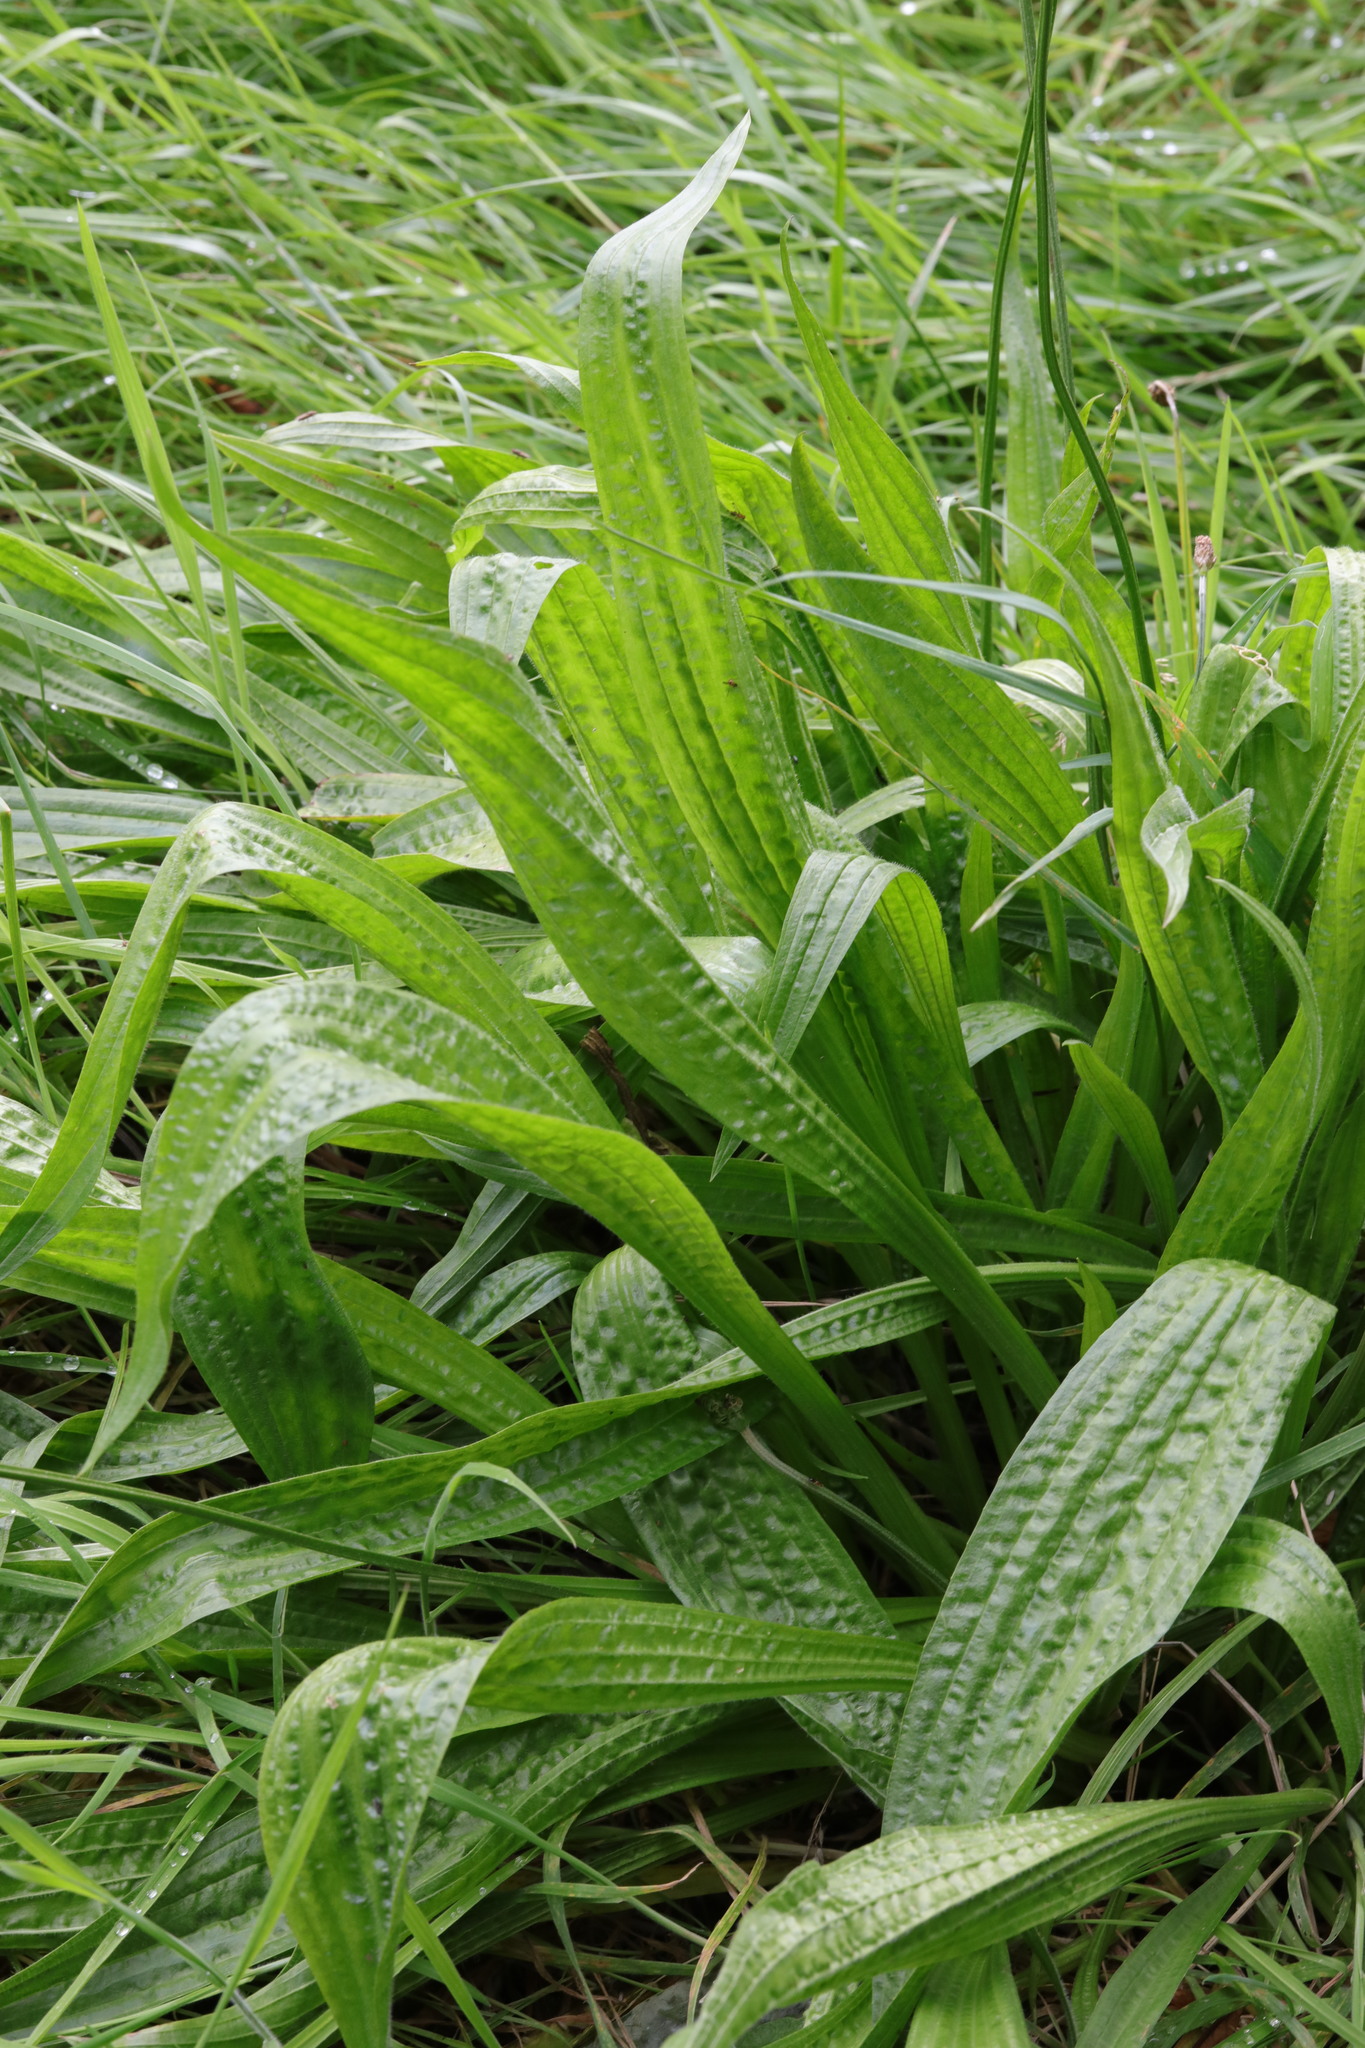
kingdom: Plantae
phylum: Tracheophyta
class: Magnoliopsida
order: Lamiales
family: Plantaginaceae
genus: Plantago
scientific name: Plantago lanceolata
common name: Ribwort plantain
